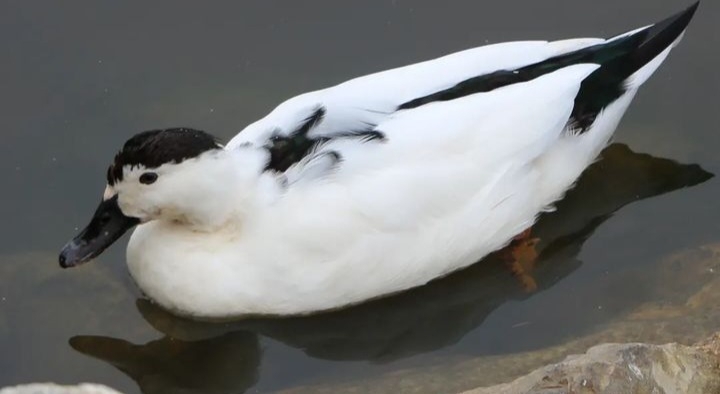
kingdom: Animalia
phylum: Chordata
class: Aves
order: Anseriformes
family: Anatidae
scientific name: Anatidae
